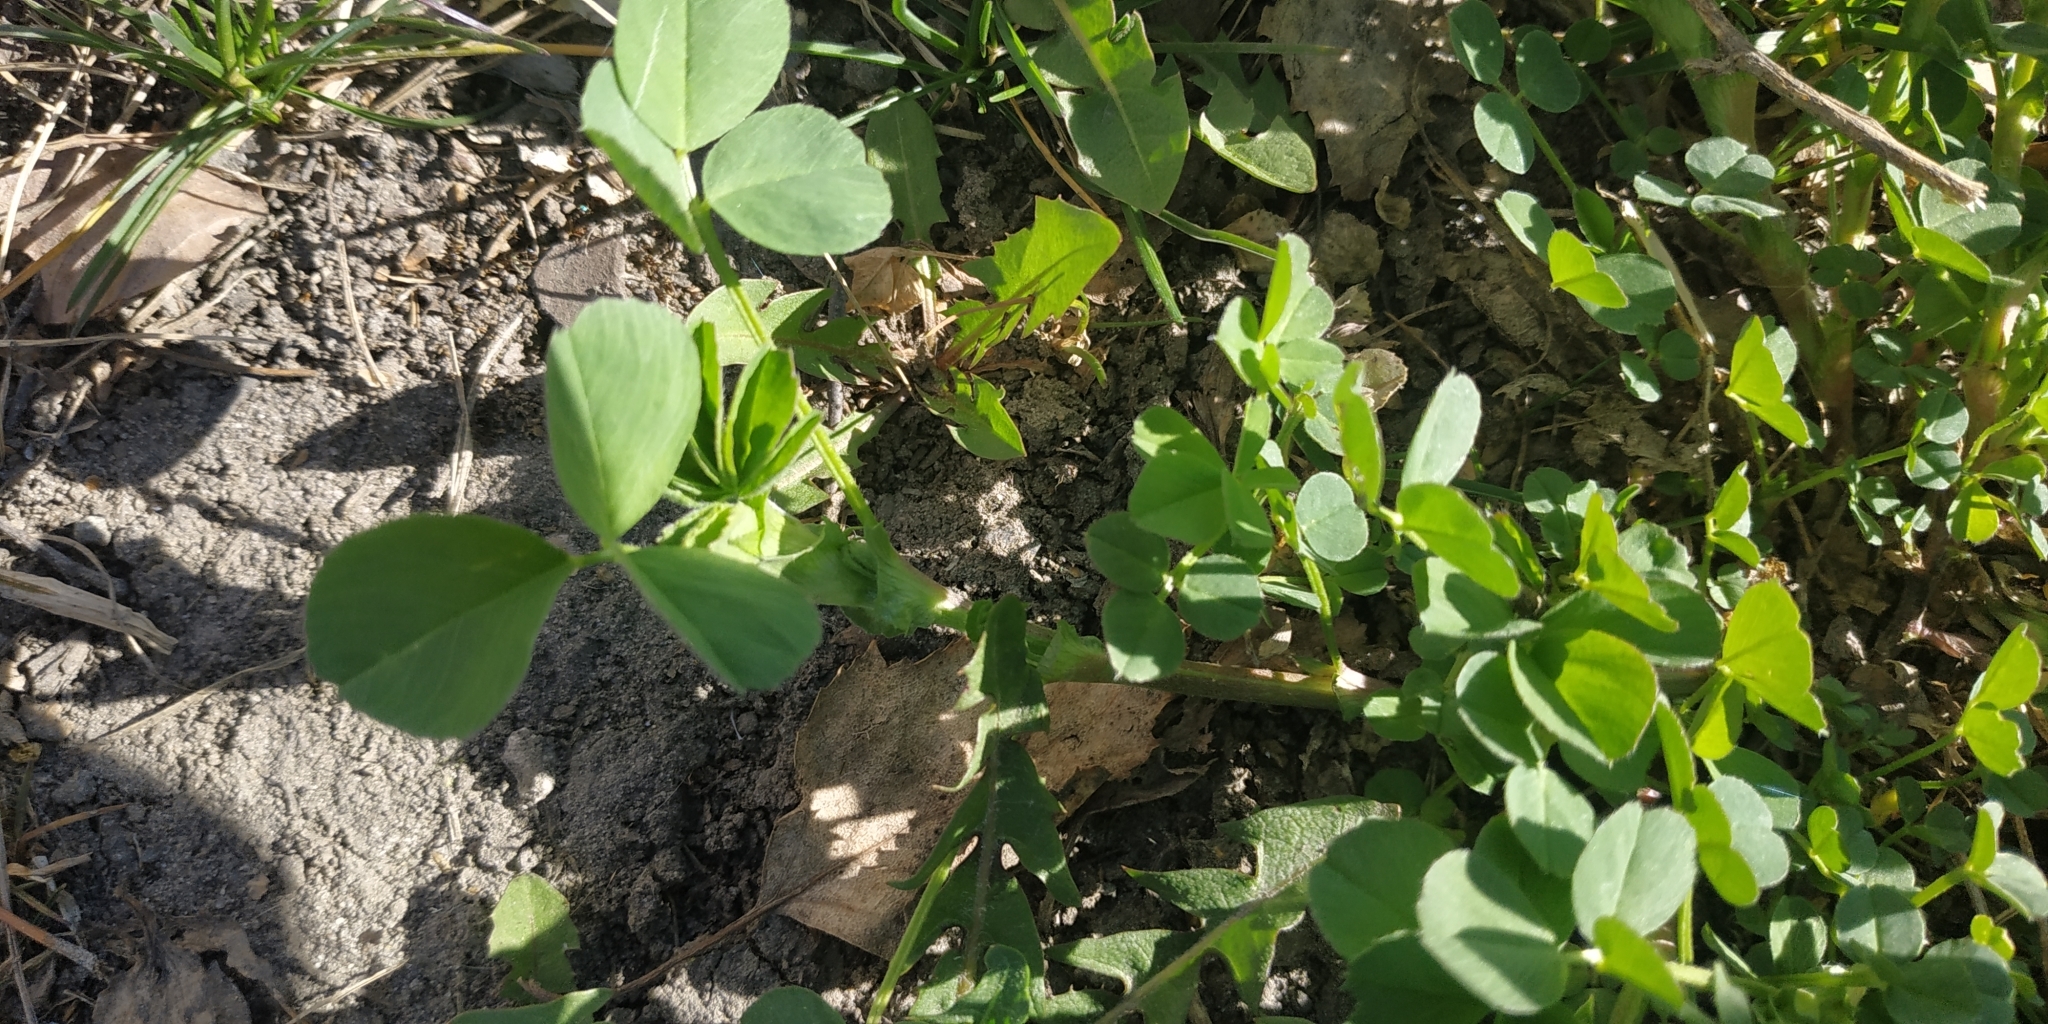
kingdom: Plantae
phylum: Tracheophyta
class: Magnoliopsida
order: Fabales
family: Fabaceae
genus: Trifolium
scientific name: Trifolium repens
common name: White clover
